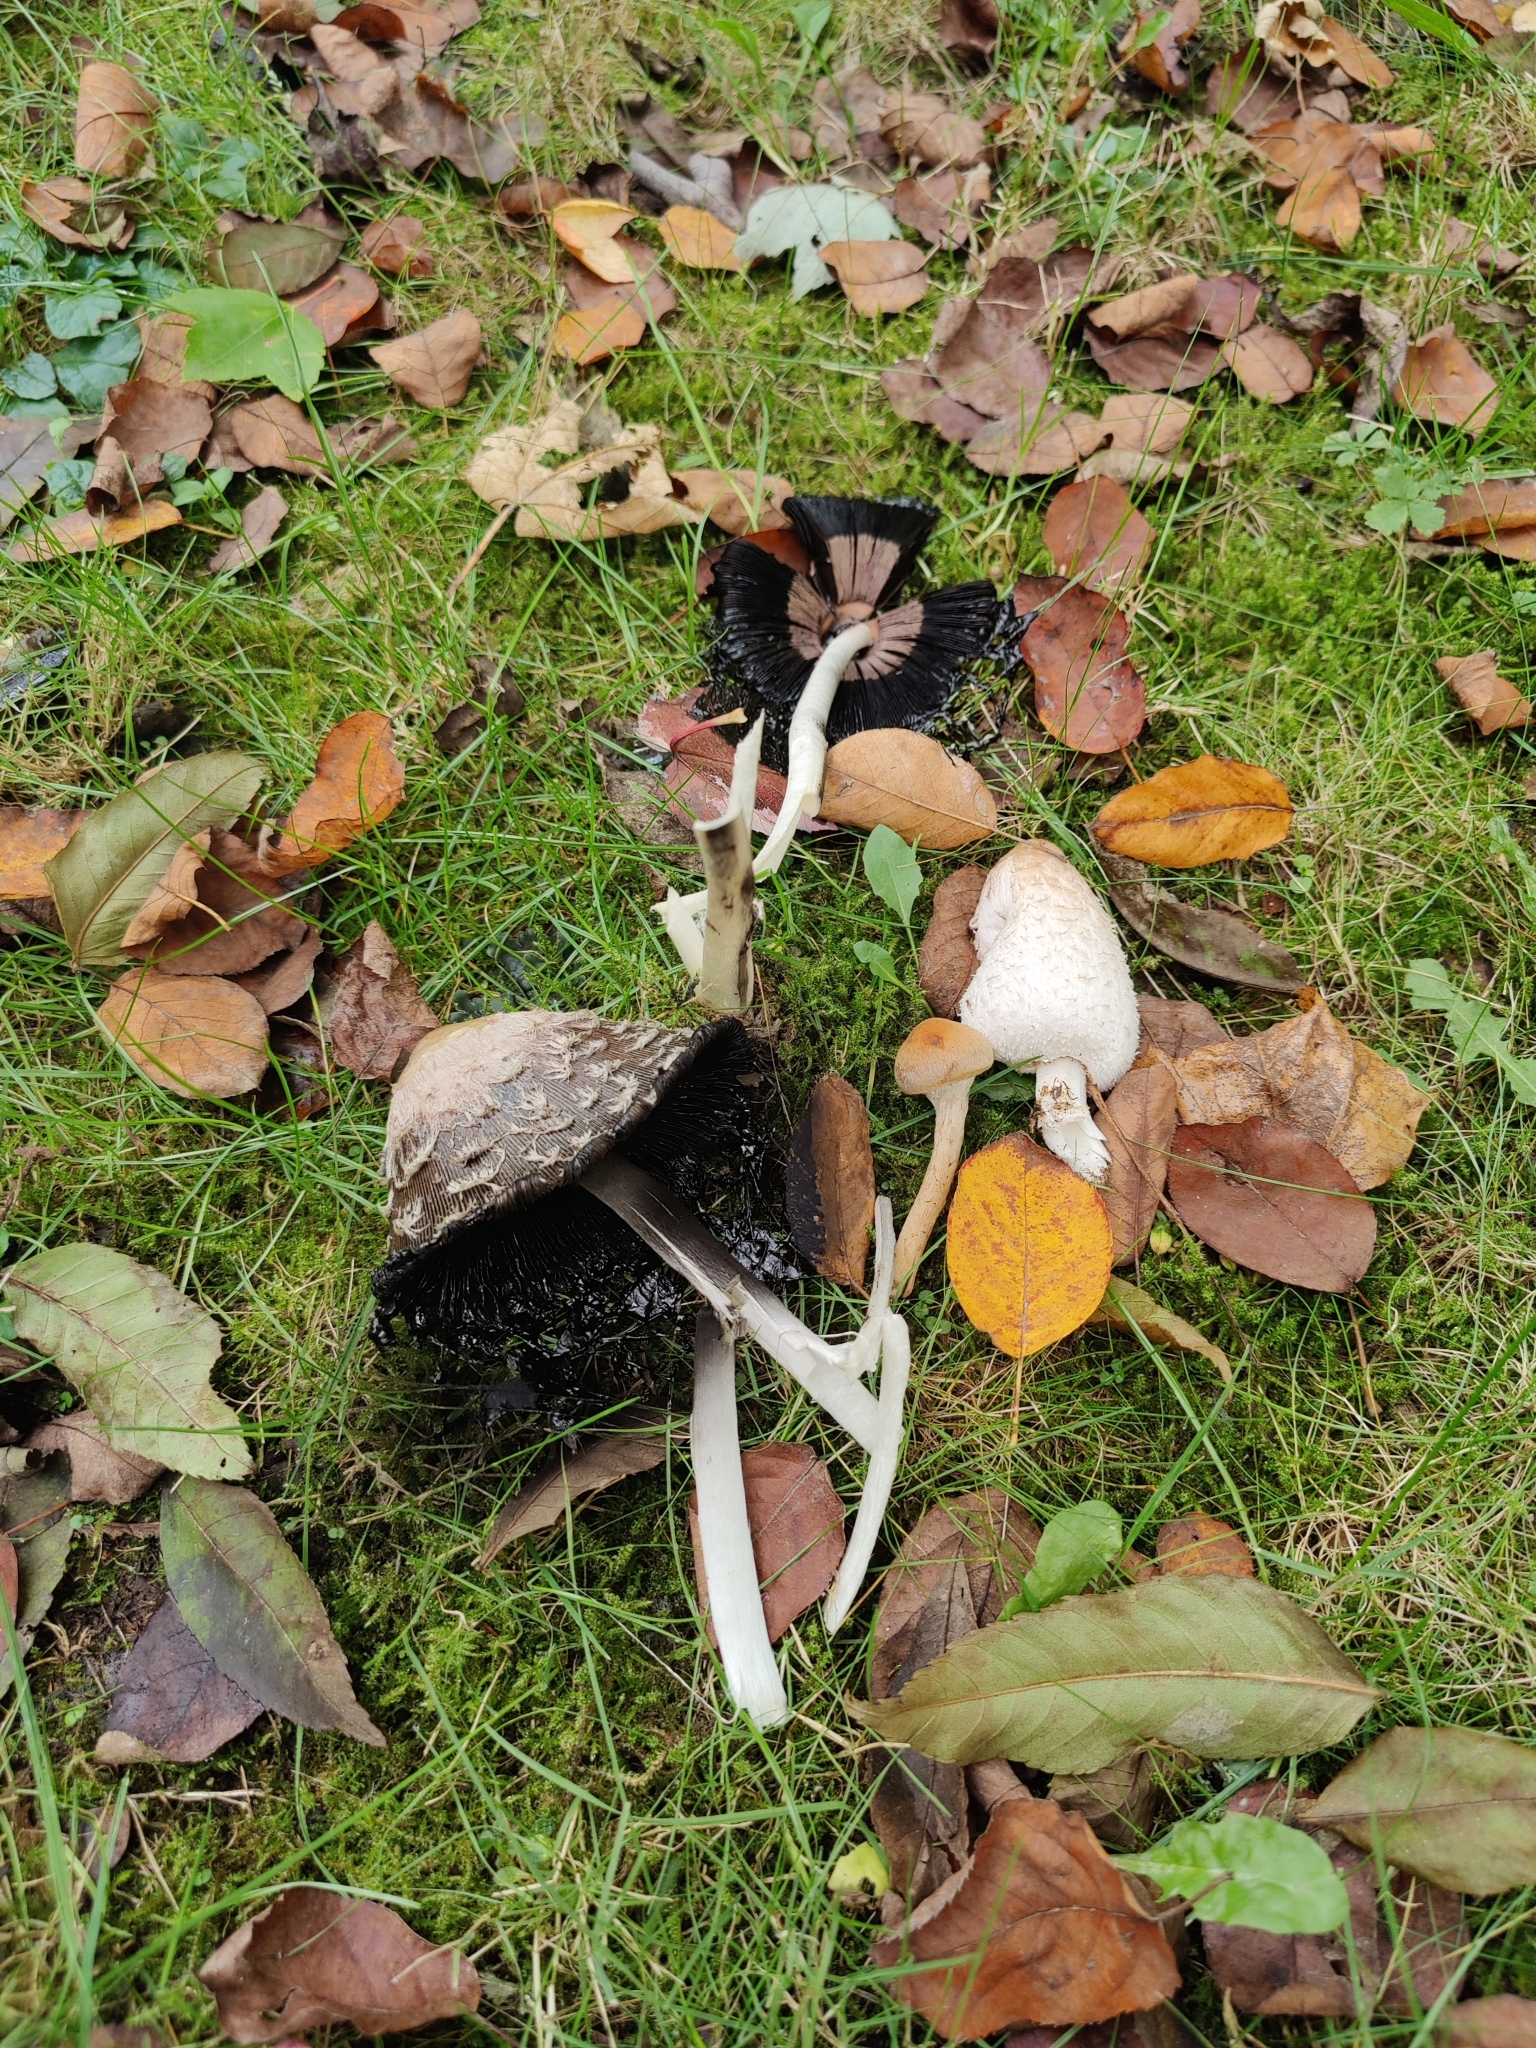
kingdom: Fungi
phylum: Basidiomycota
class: Agaricomycetes
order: Agaricales
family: Agaricaceae
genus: Coprinus
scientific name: Coprinus comatus
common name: Lawyer's wig
